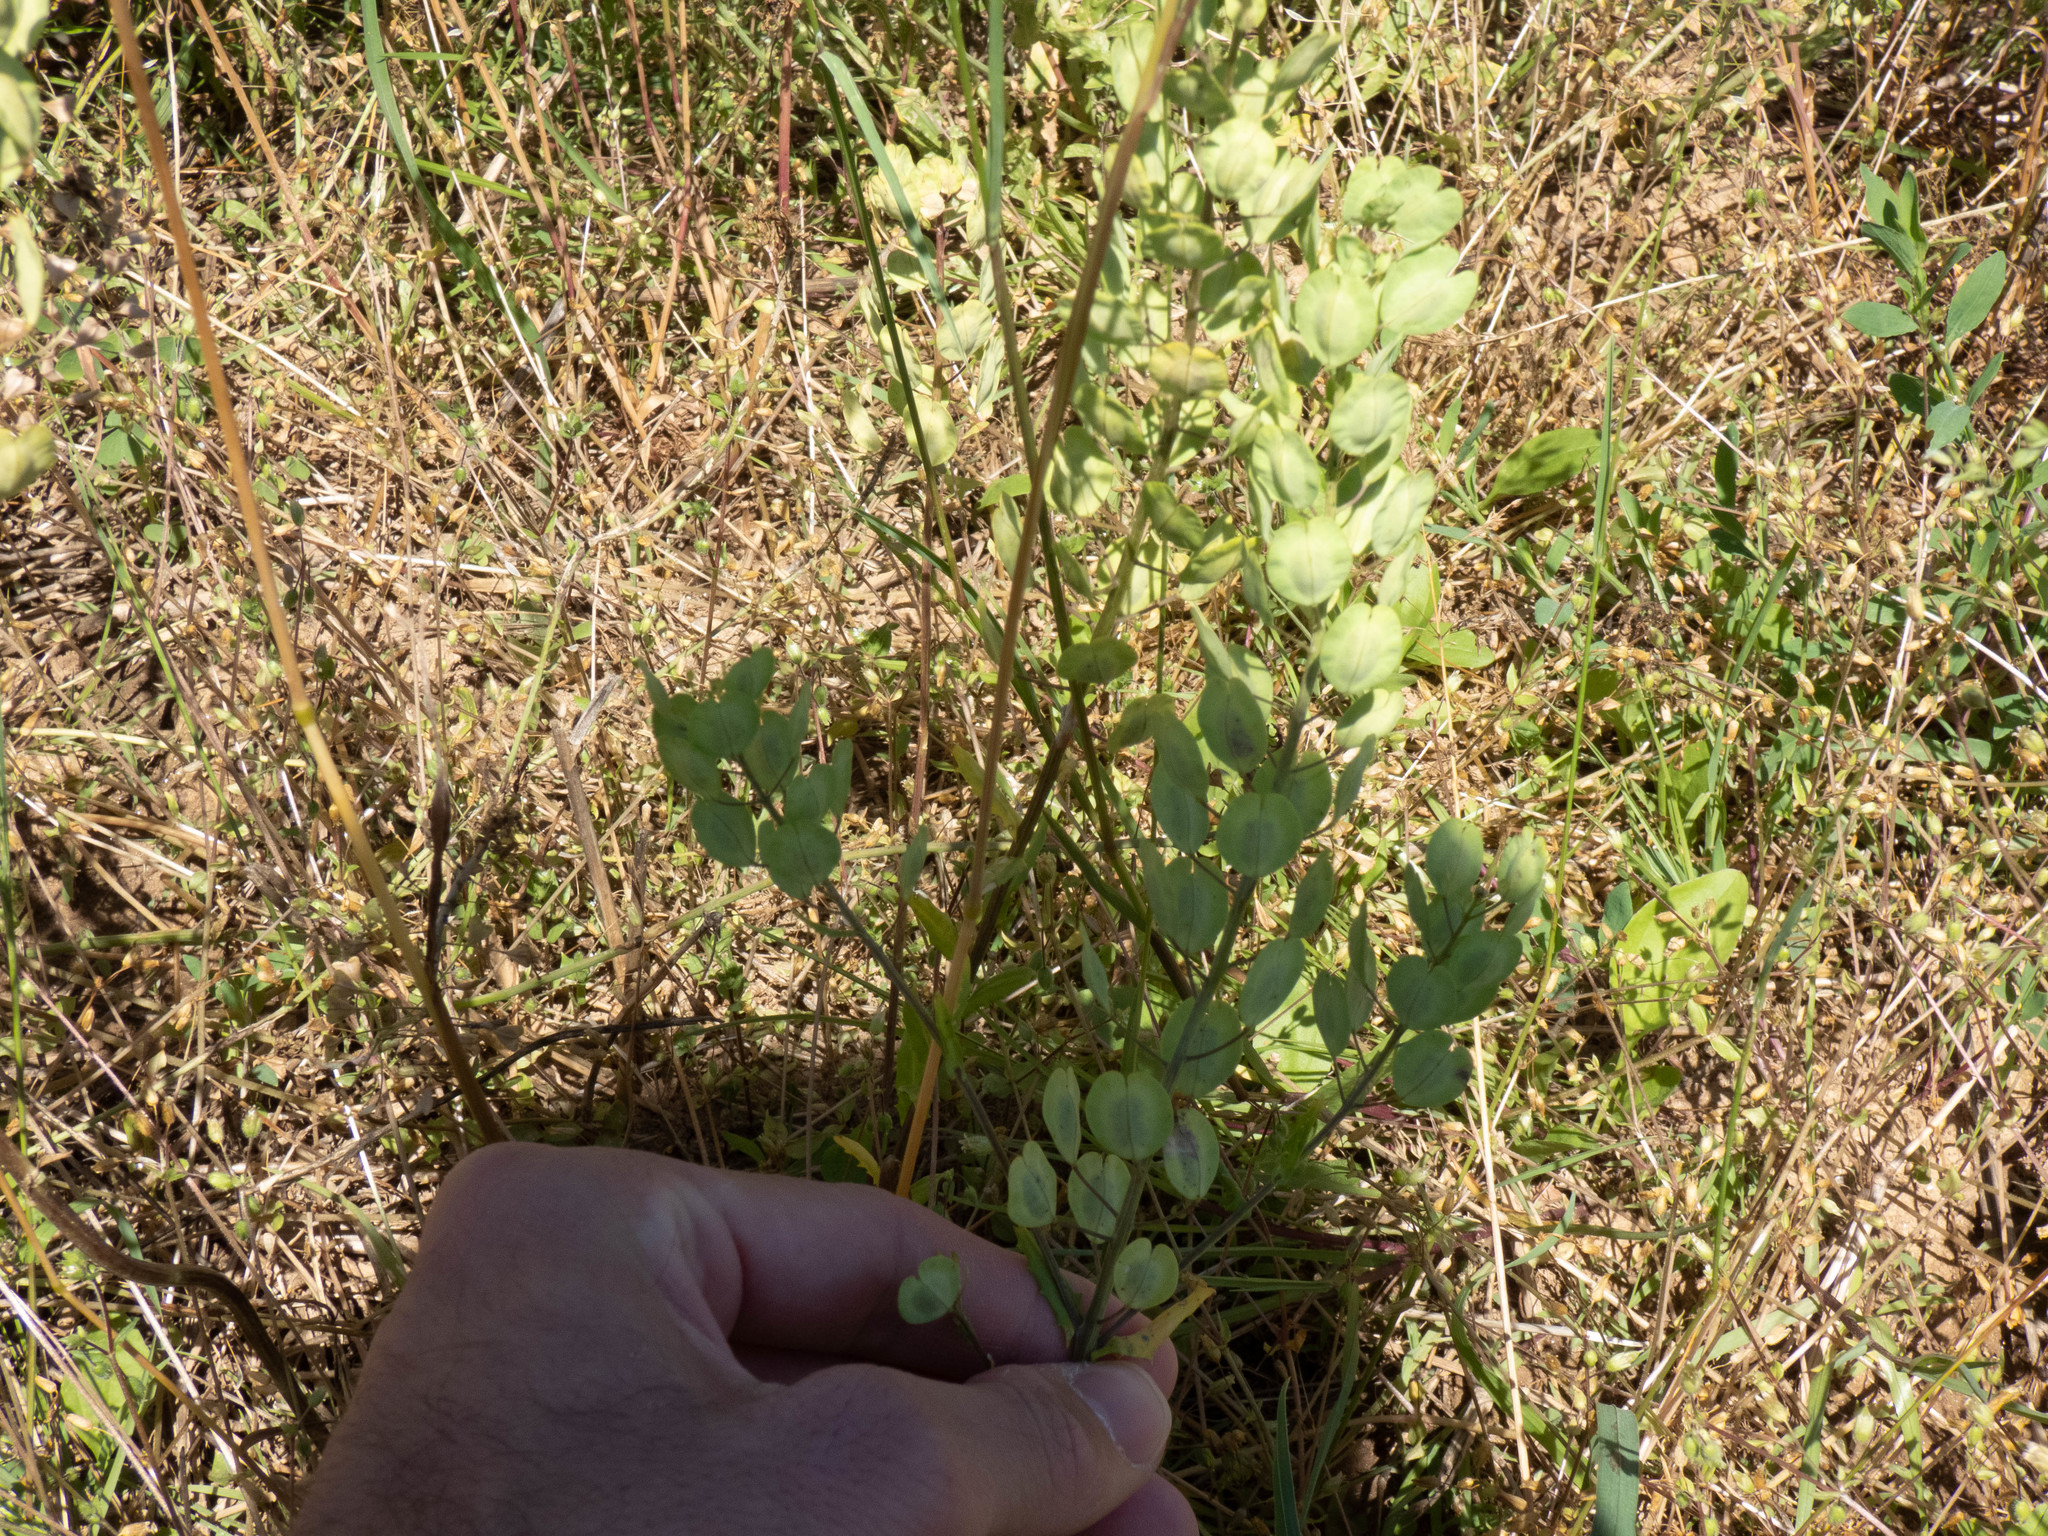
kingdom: Plantae
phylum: Tracheophyta
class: Magnoliopsida
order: Brassicales
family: Brassicaceae
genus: Thlaspi
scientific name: Thlaspi arvense
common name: Field pennycress
